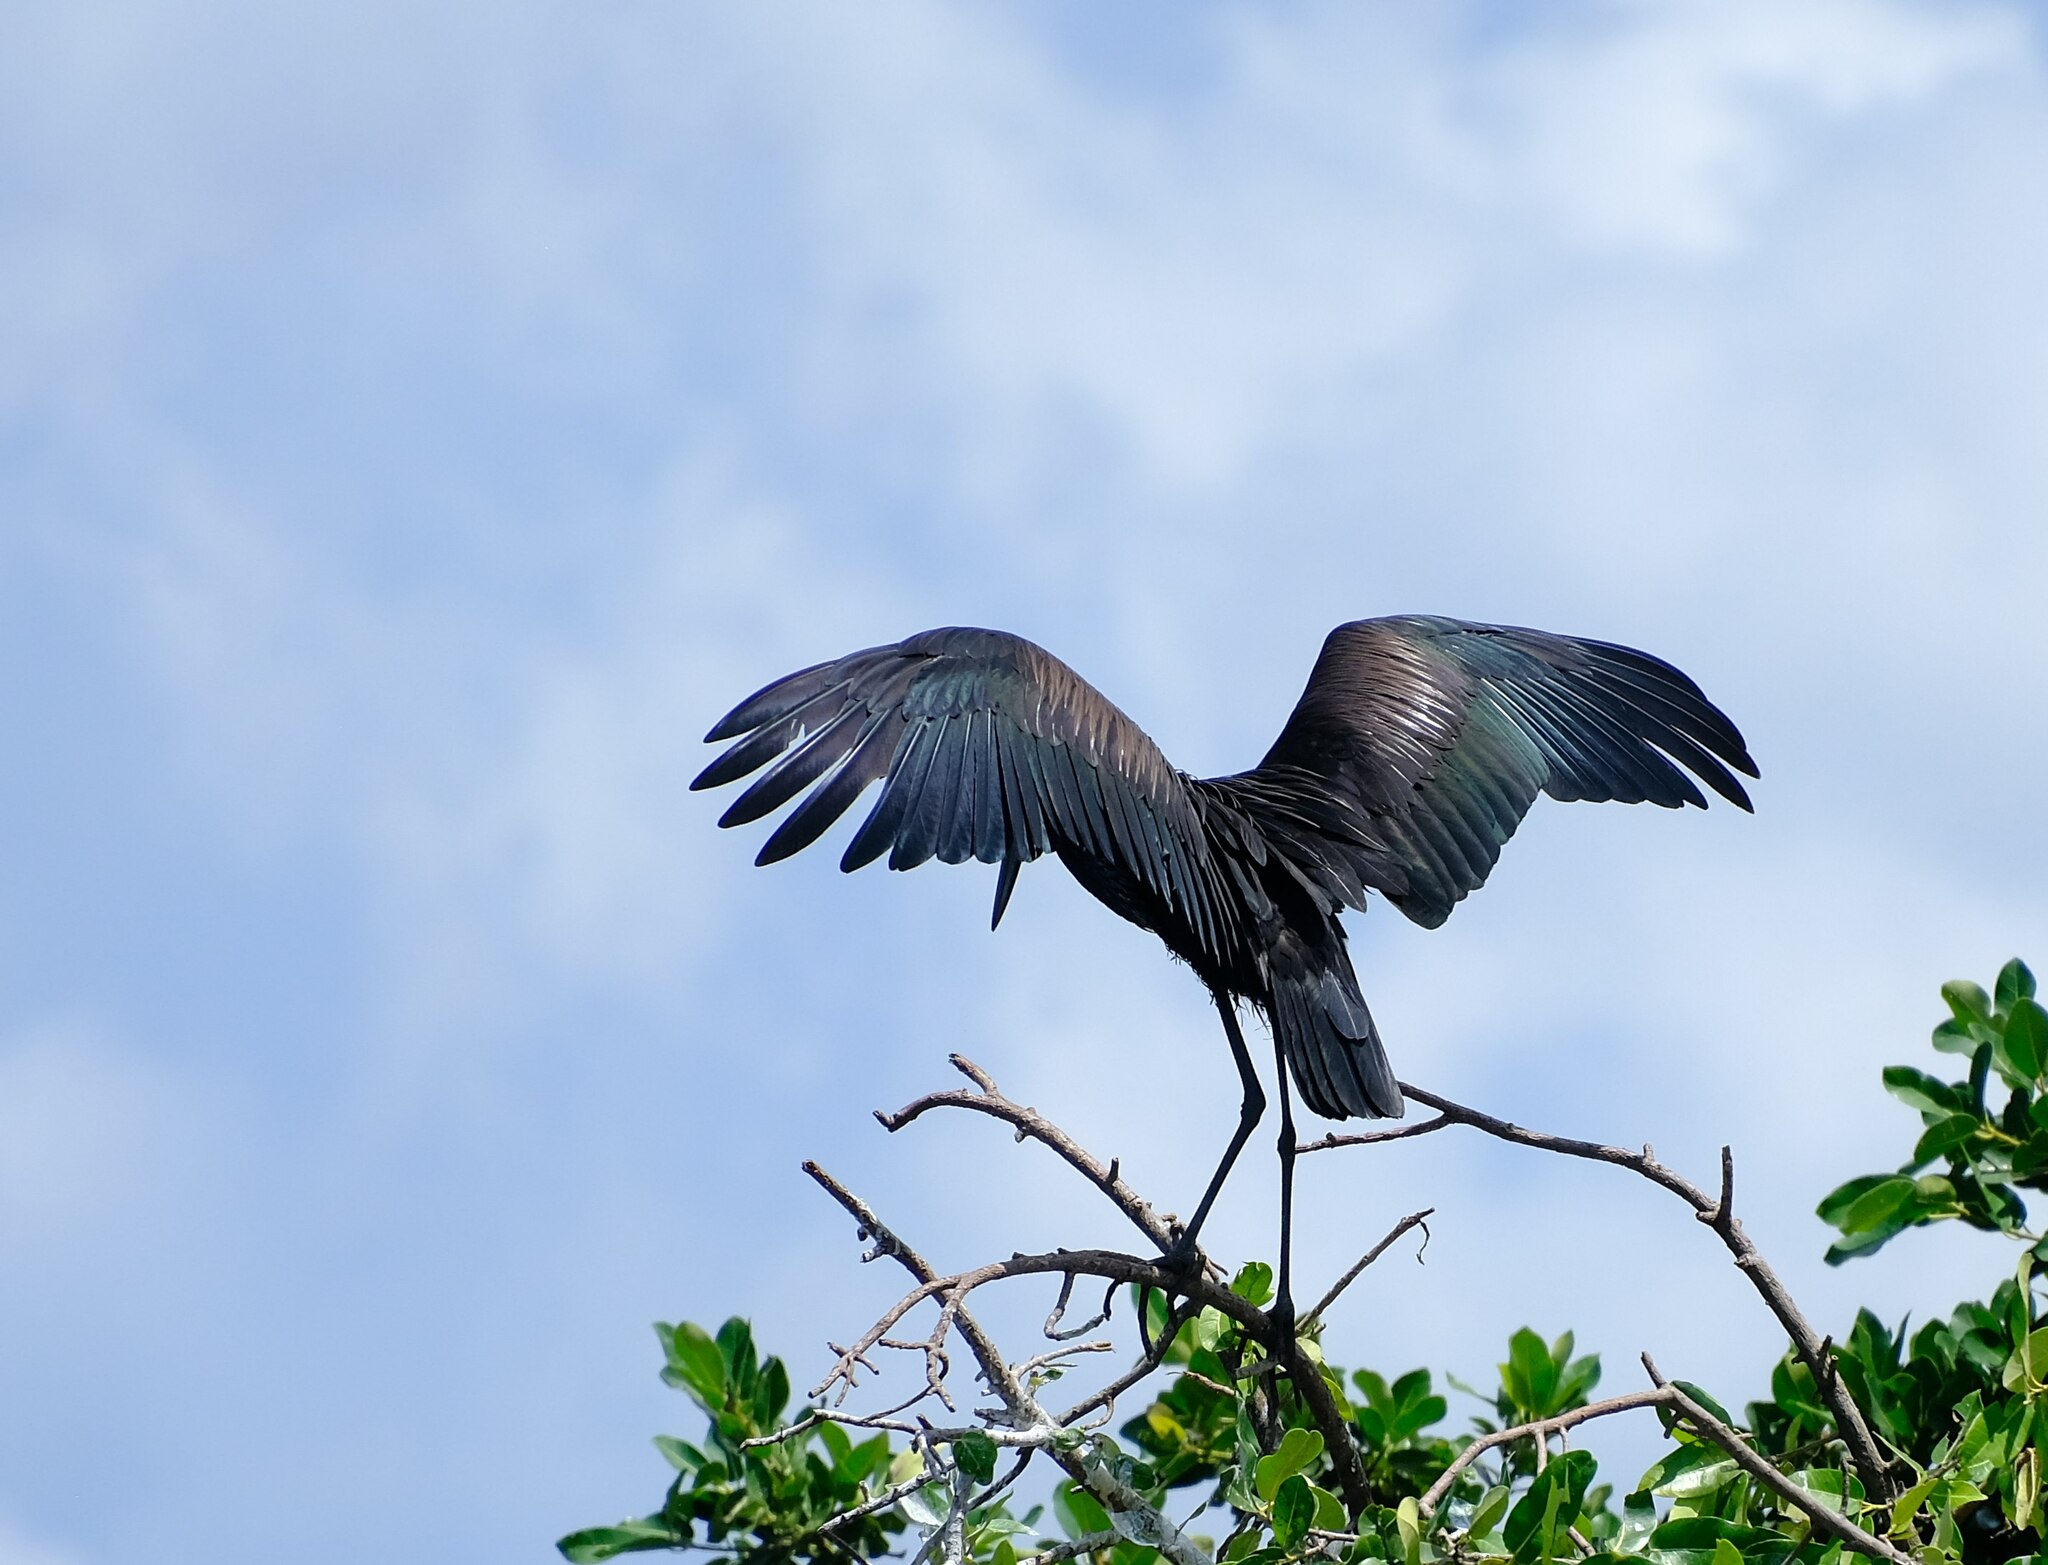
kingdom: Animalia
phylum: Chordata
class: Aves
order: Ciconiiformes
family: Ciconiidae
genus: Anastomus
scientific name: Anastomus lamelligerus
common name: African openbill
